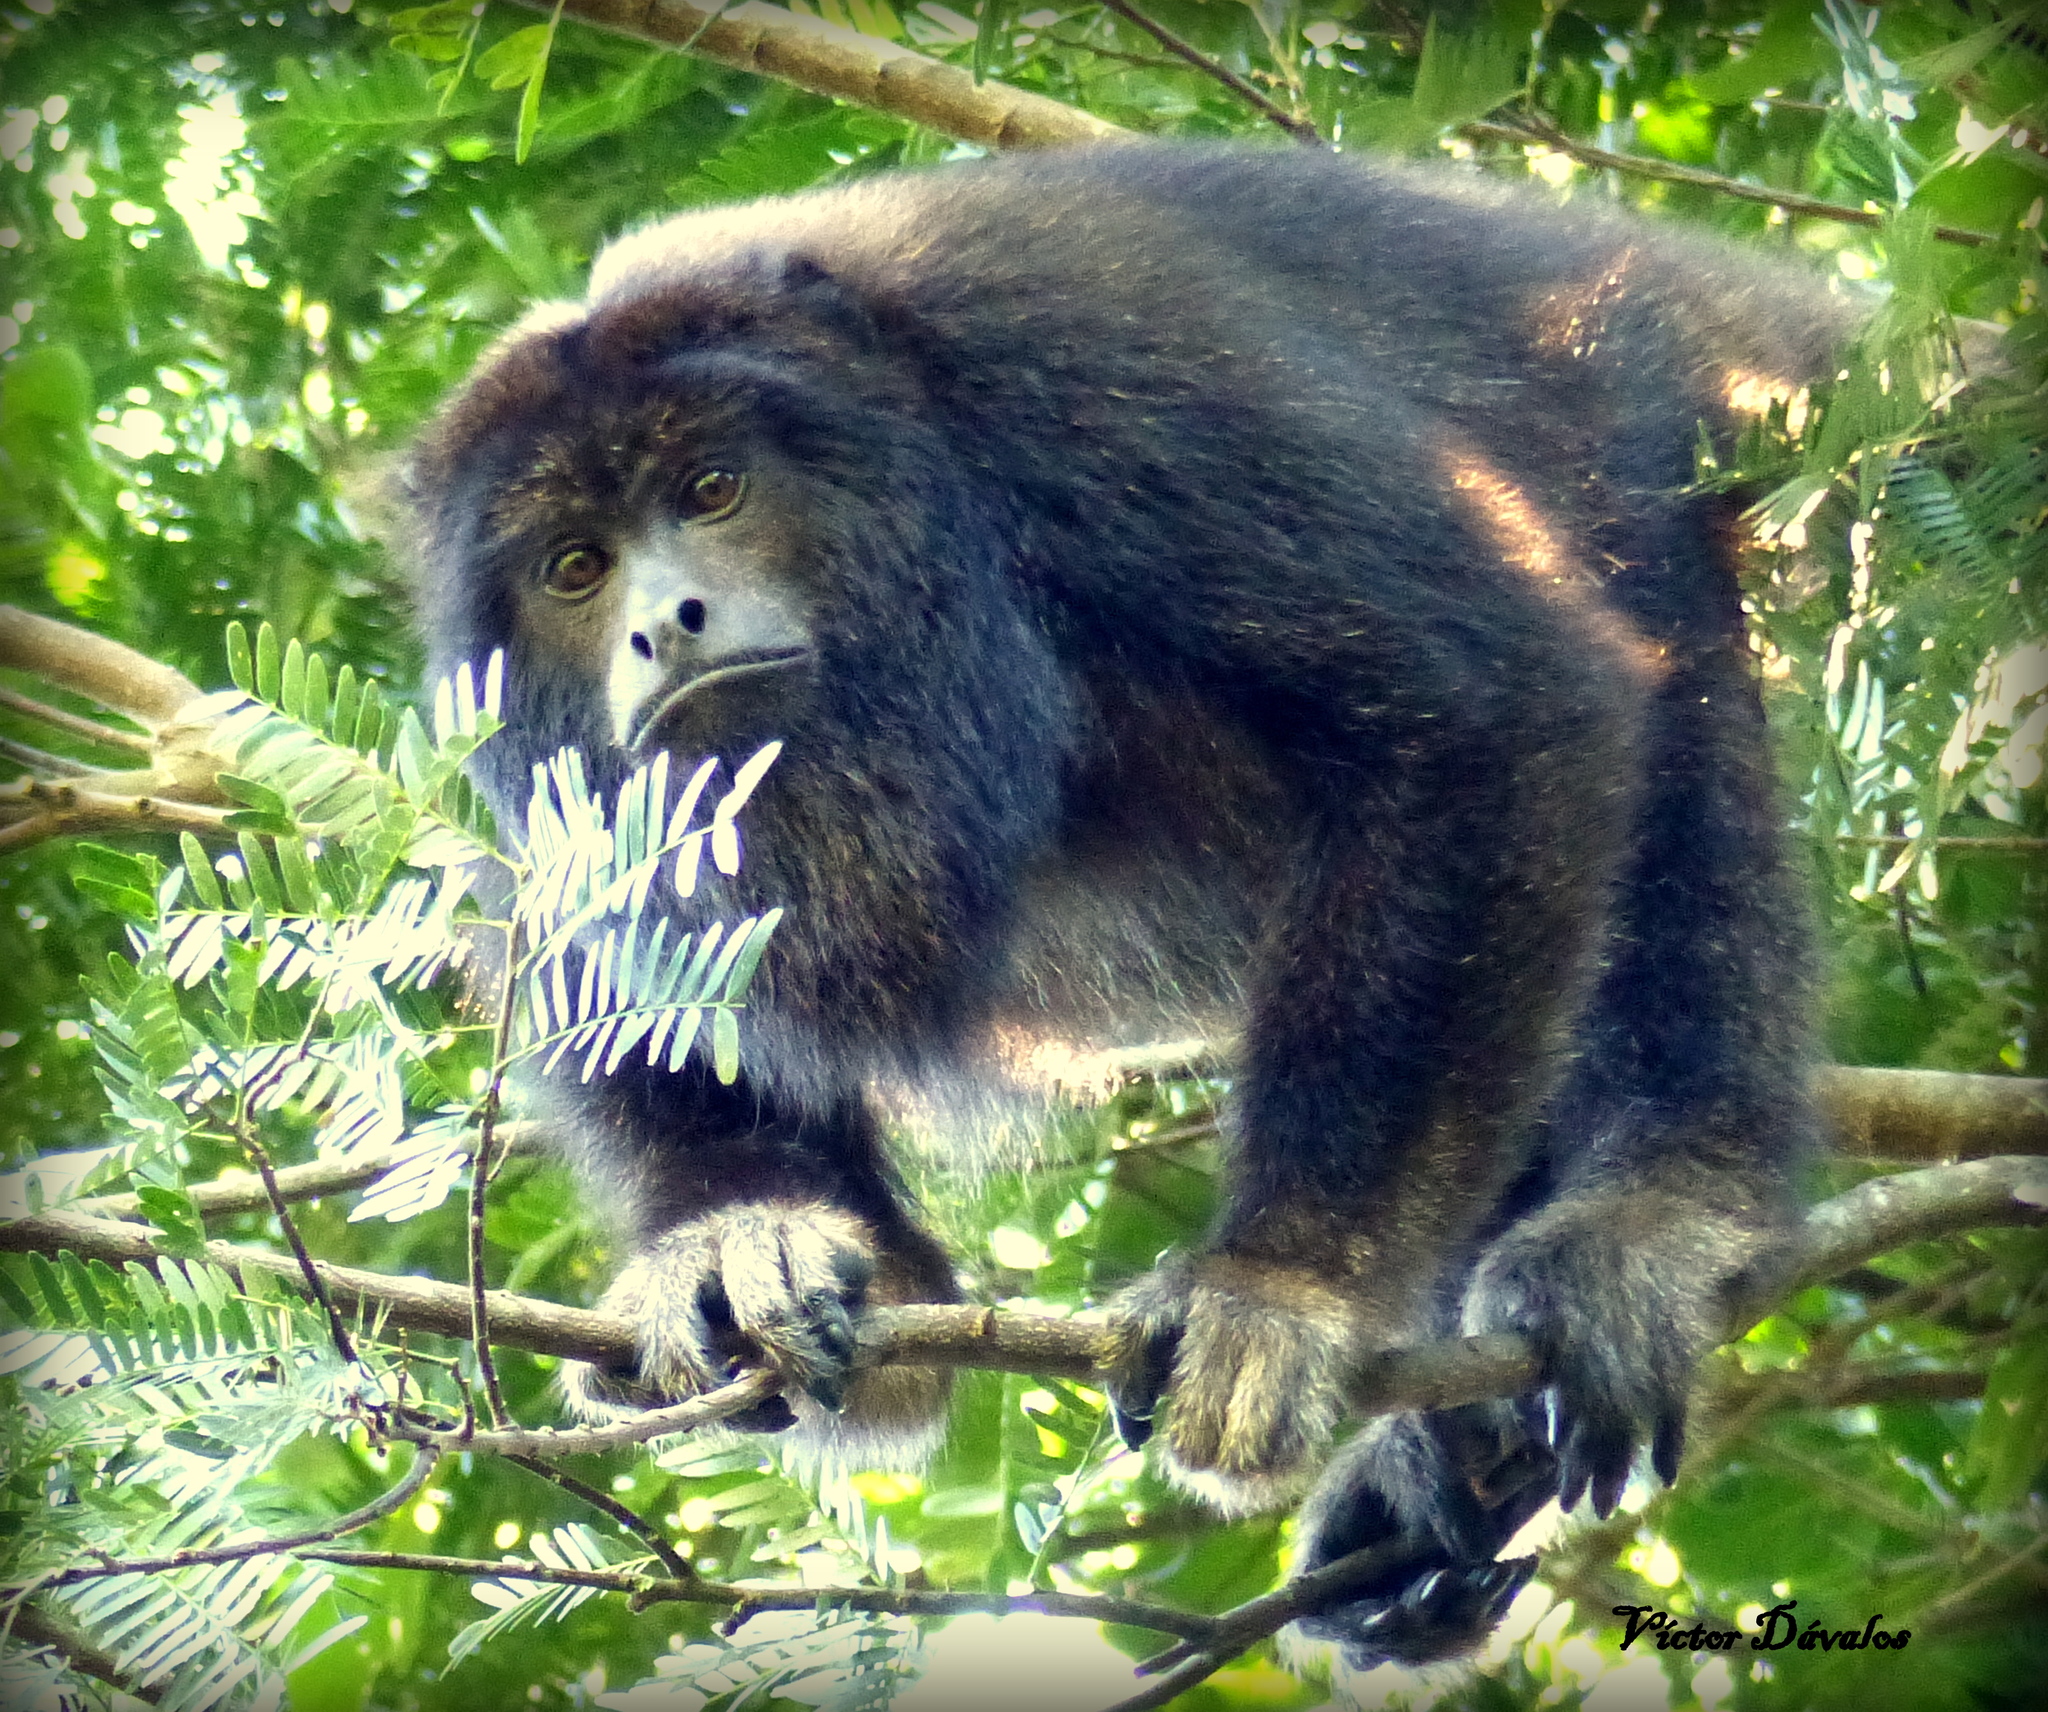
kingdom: Animalia
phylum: Chordata
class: Mammalia
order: Primates
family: Atelidae
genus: Alouatta
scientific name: Alouatta caraya
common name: Black howler
